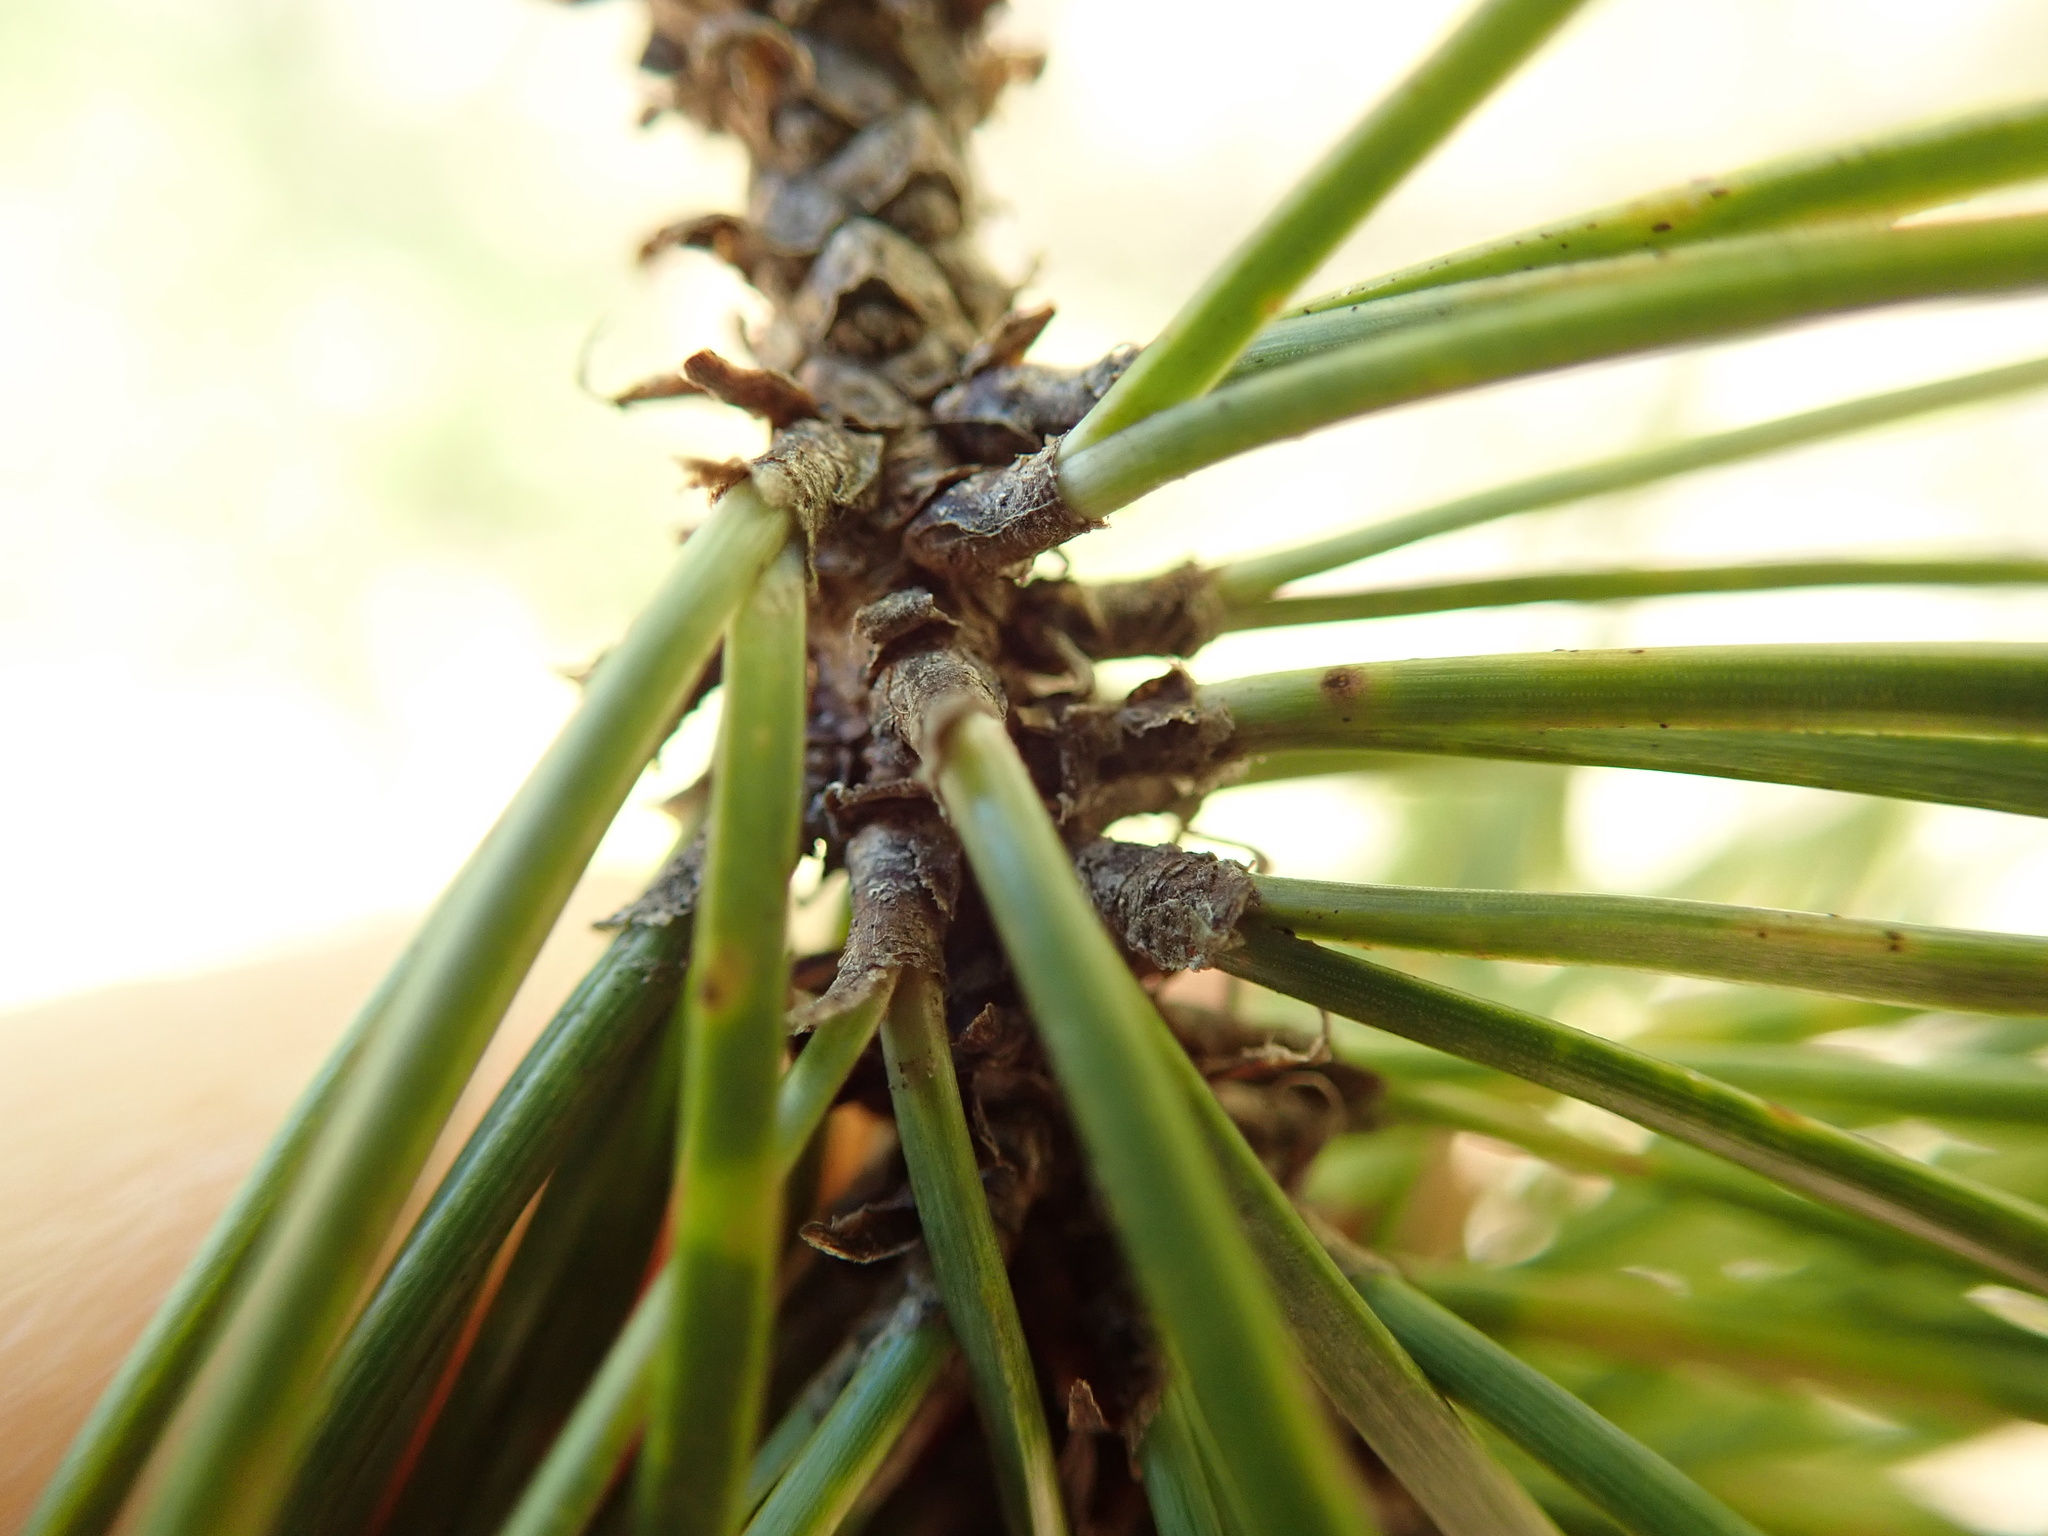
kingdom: Plantae
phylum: Tracheophyta
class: Pinopsida
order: Pinales
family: Pinaceae
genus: Pinus
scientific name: Pinus contorta
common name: Lodgepole pine
